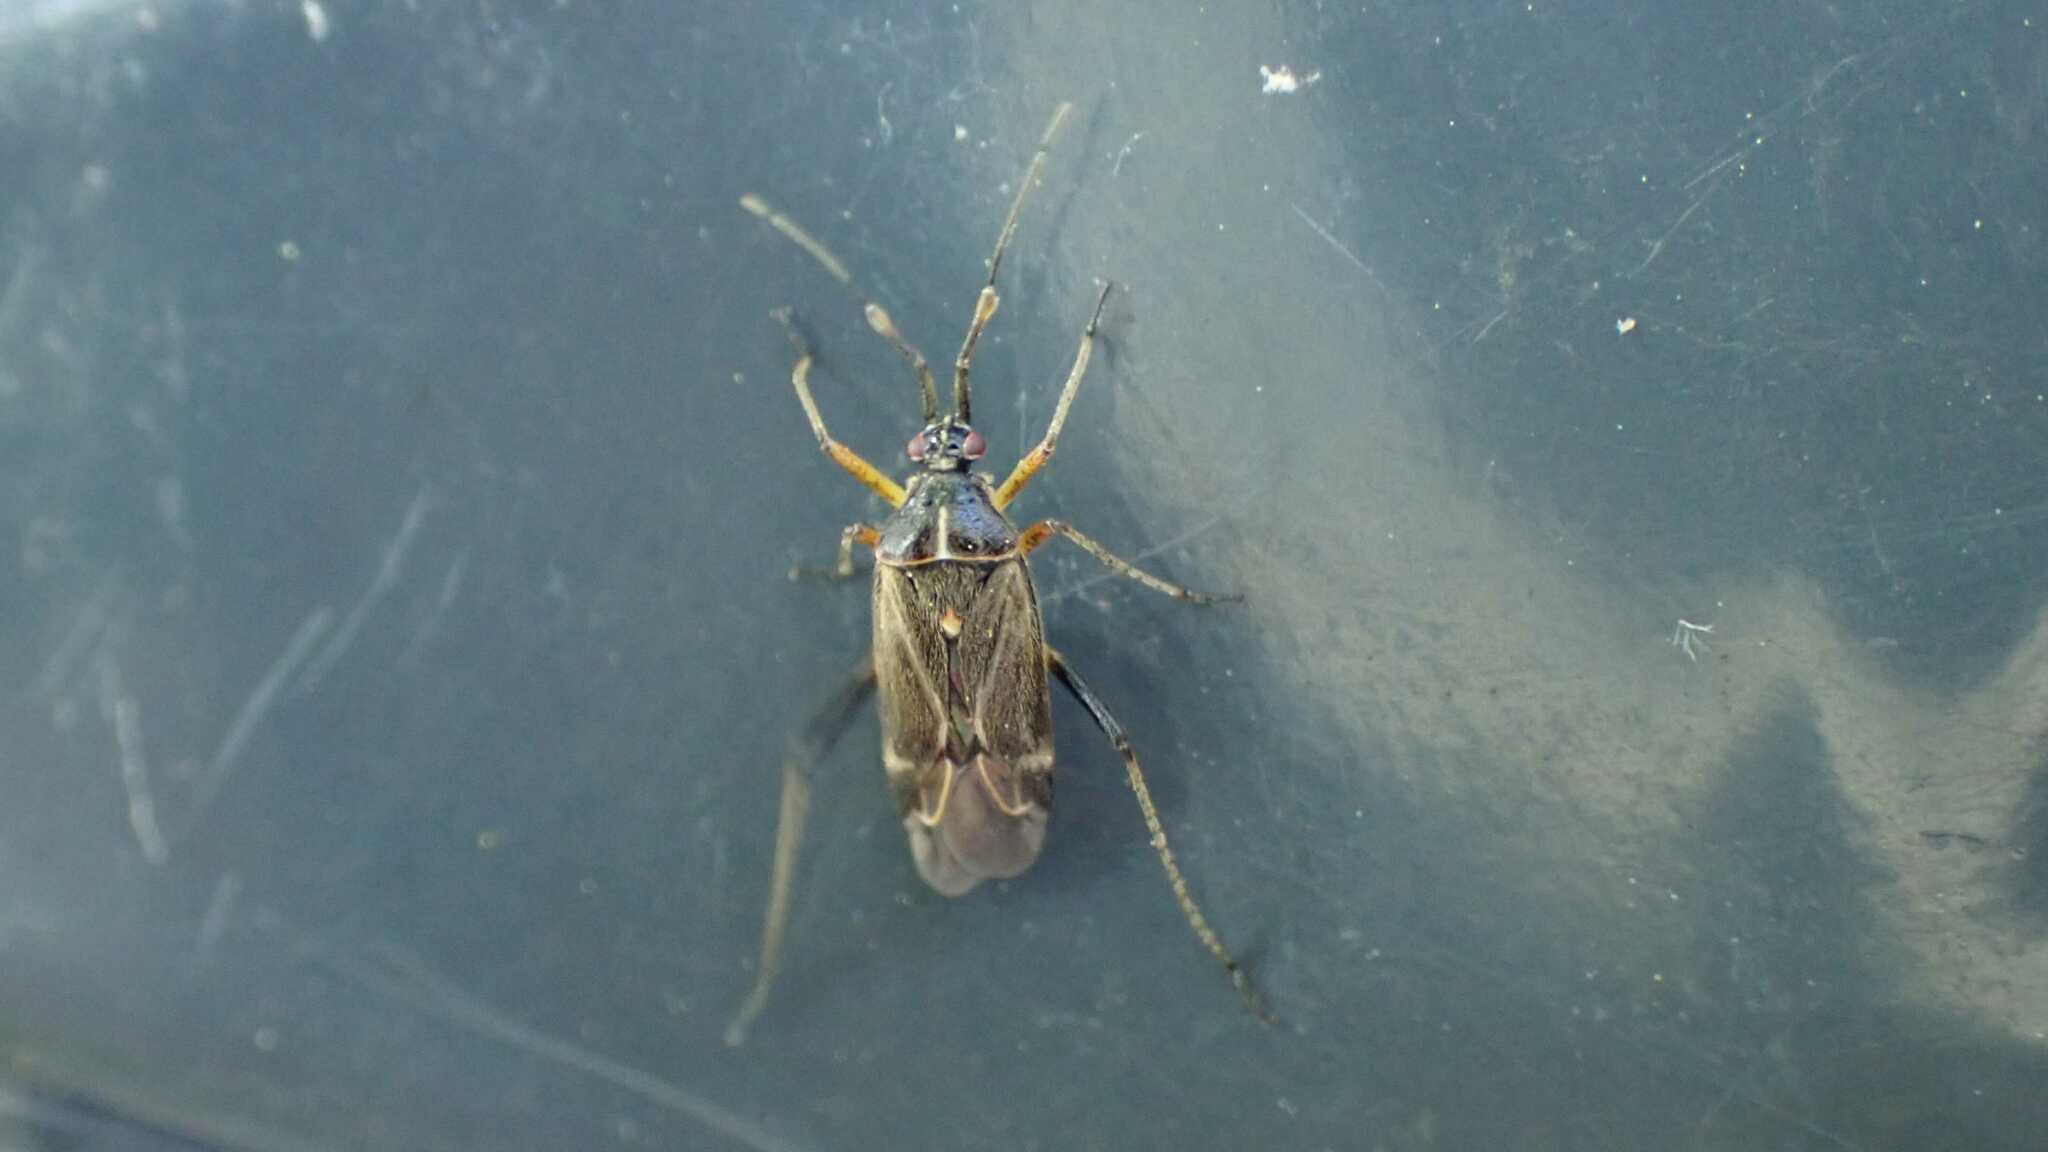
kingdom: Animalia
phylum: Arthropoda
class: Insecta
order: Hemiptera
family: Miridae
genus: Harpocera
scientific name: Harpocera thoracica
